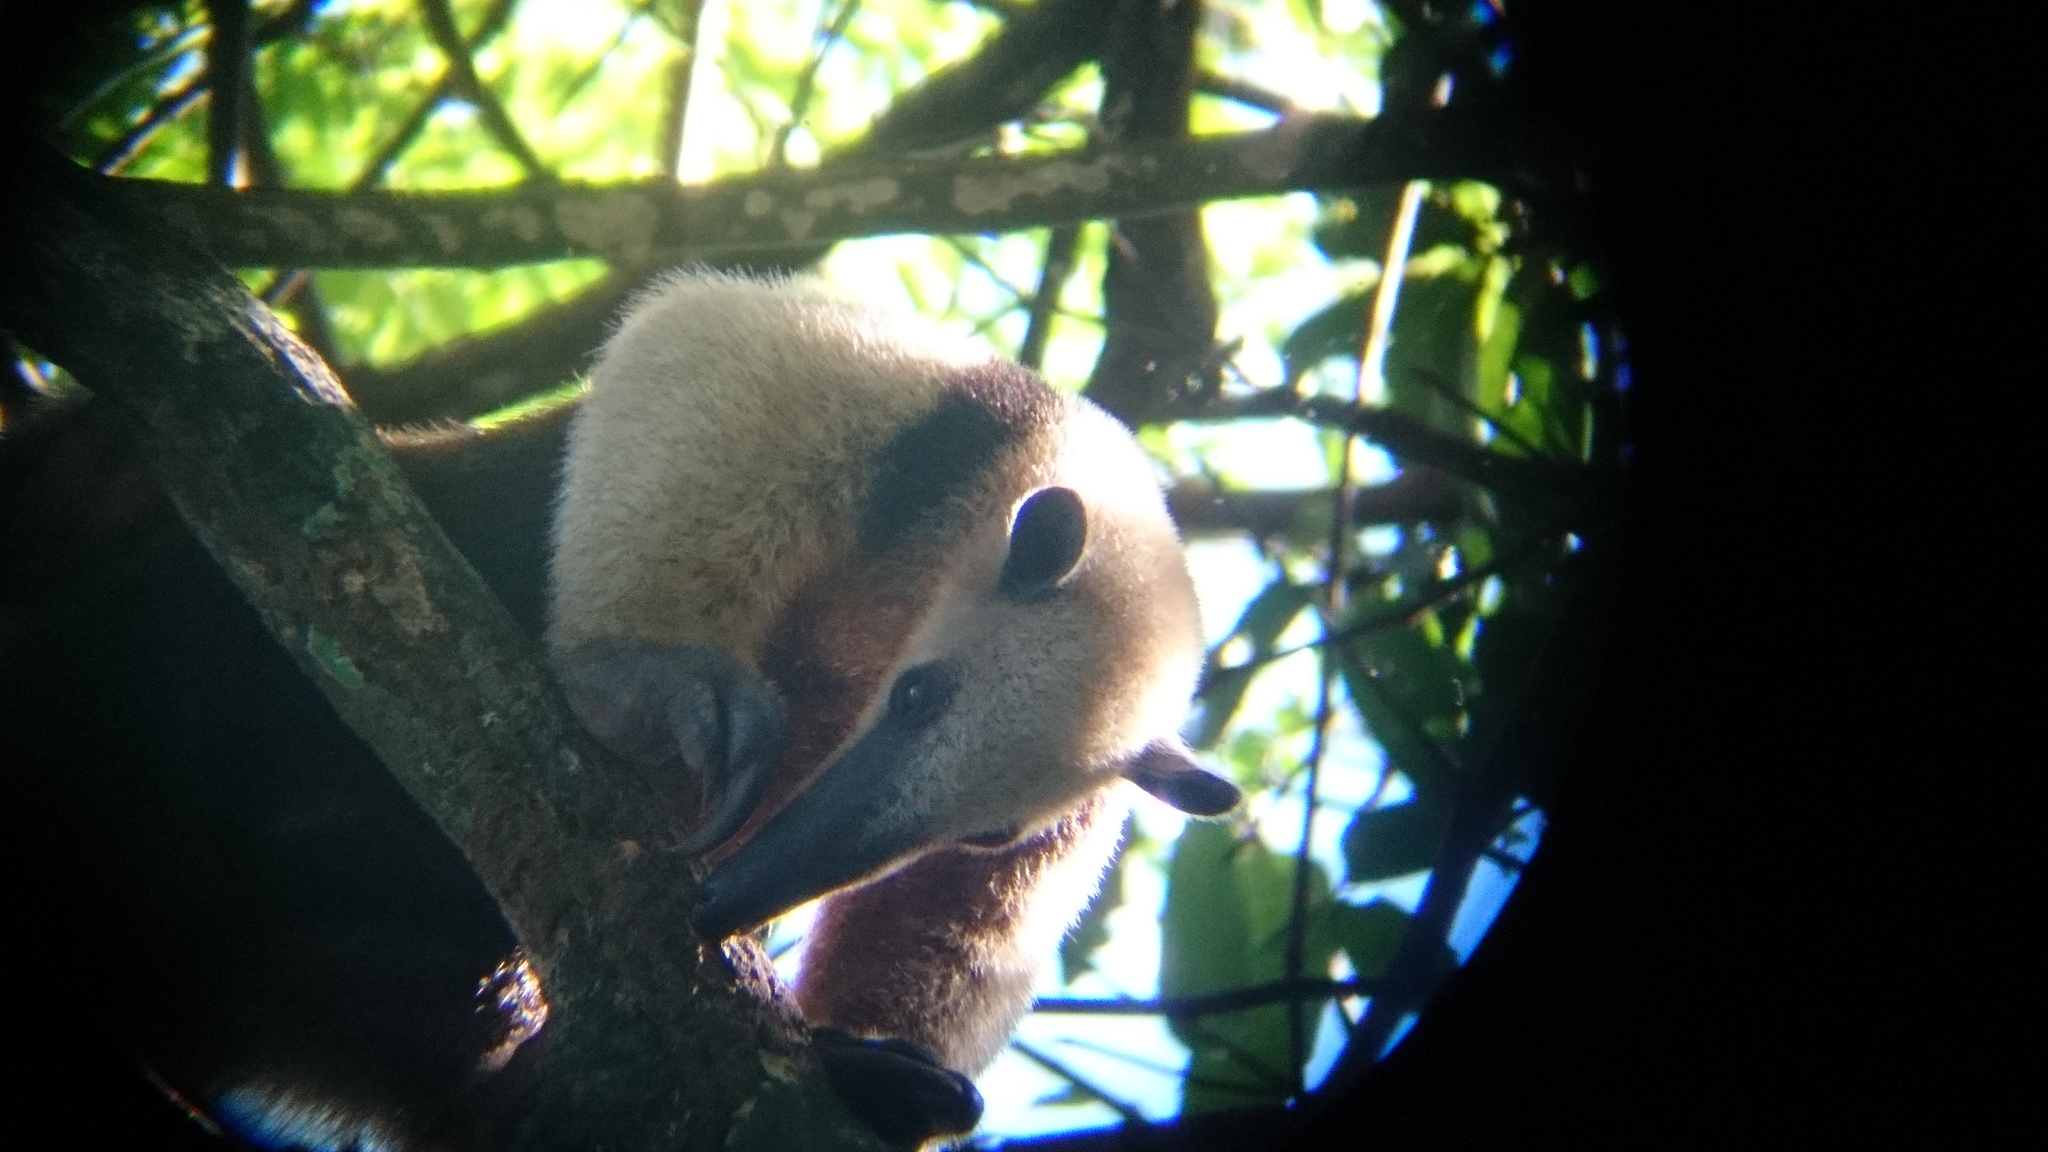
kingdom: Animalia
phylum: Chordata
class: Mammalia
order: Pilosa
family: Myrmecophagidae
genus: Tamandua
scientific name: Tamandua mexicana
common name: Northern tamandua
